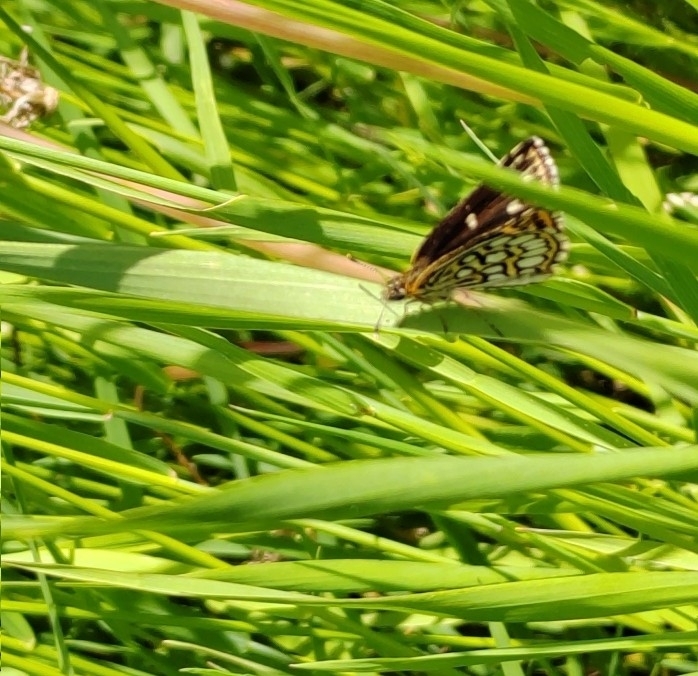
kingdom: Animalia
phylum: Arthropoda
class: Insecta
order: Lepidoptera
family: Hesperiidae
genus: Heteropterus
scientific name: Heteropterus morpheus
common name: Large chequered skipper
